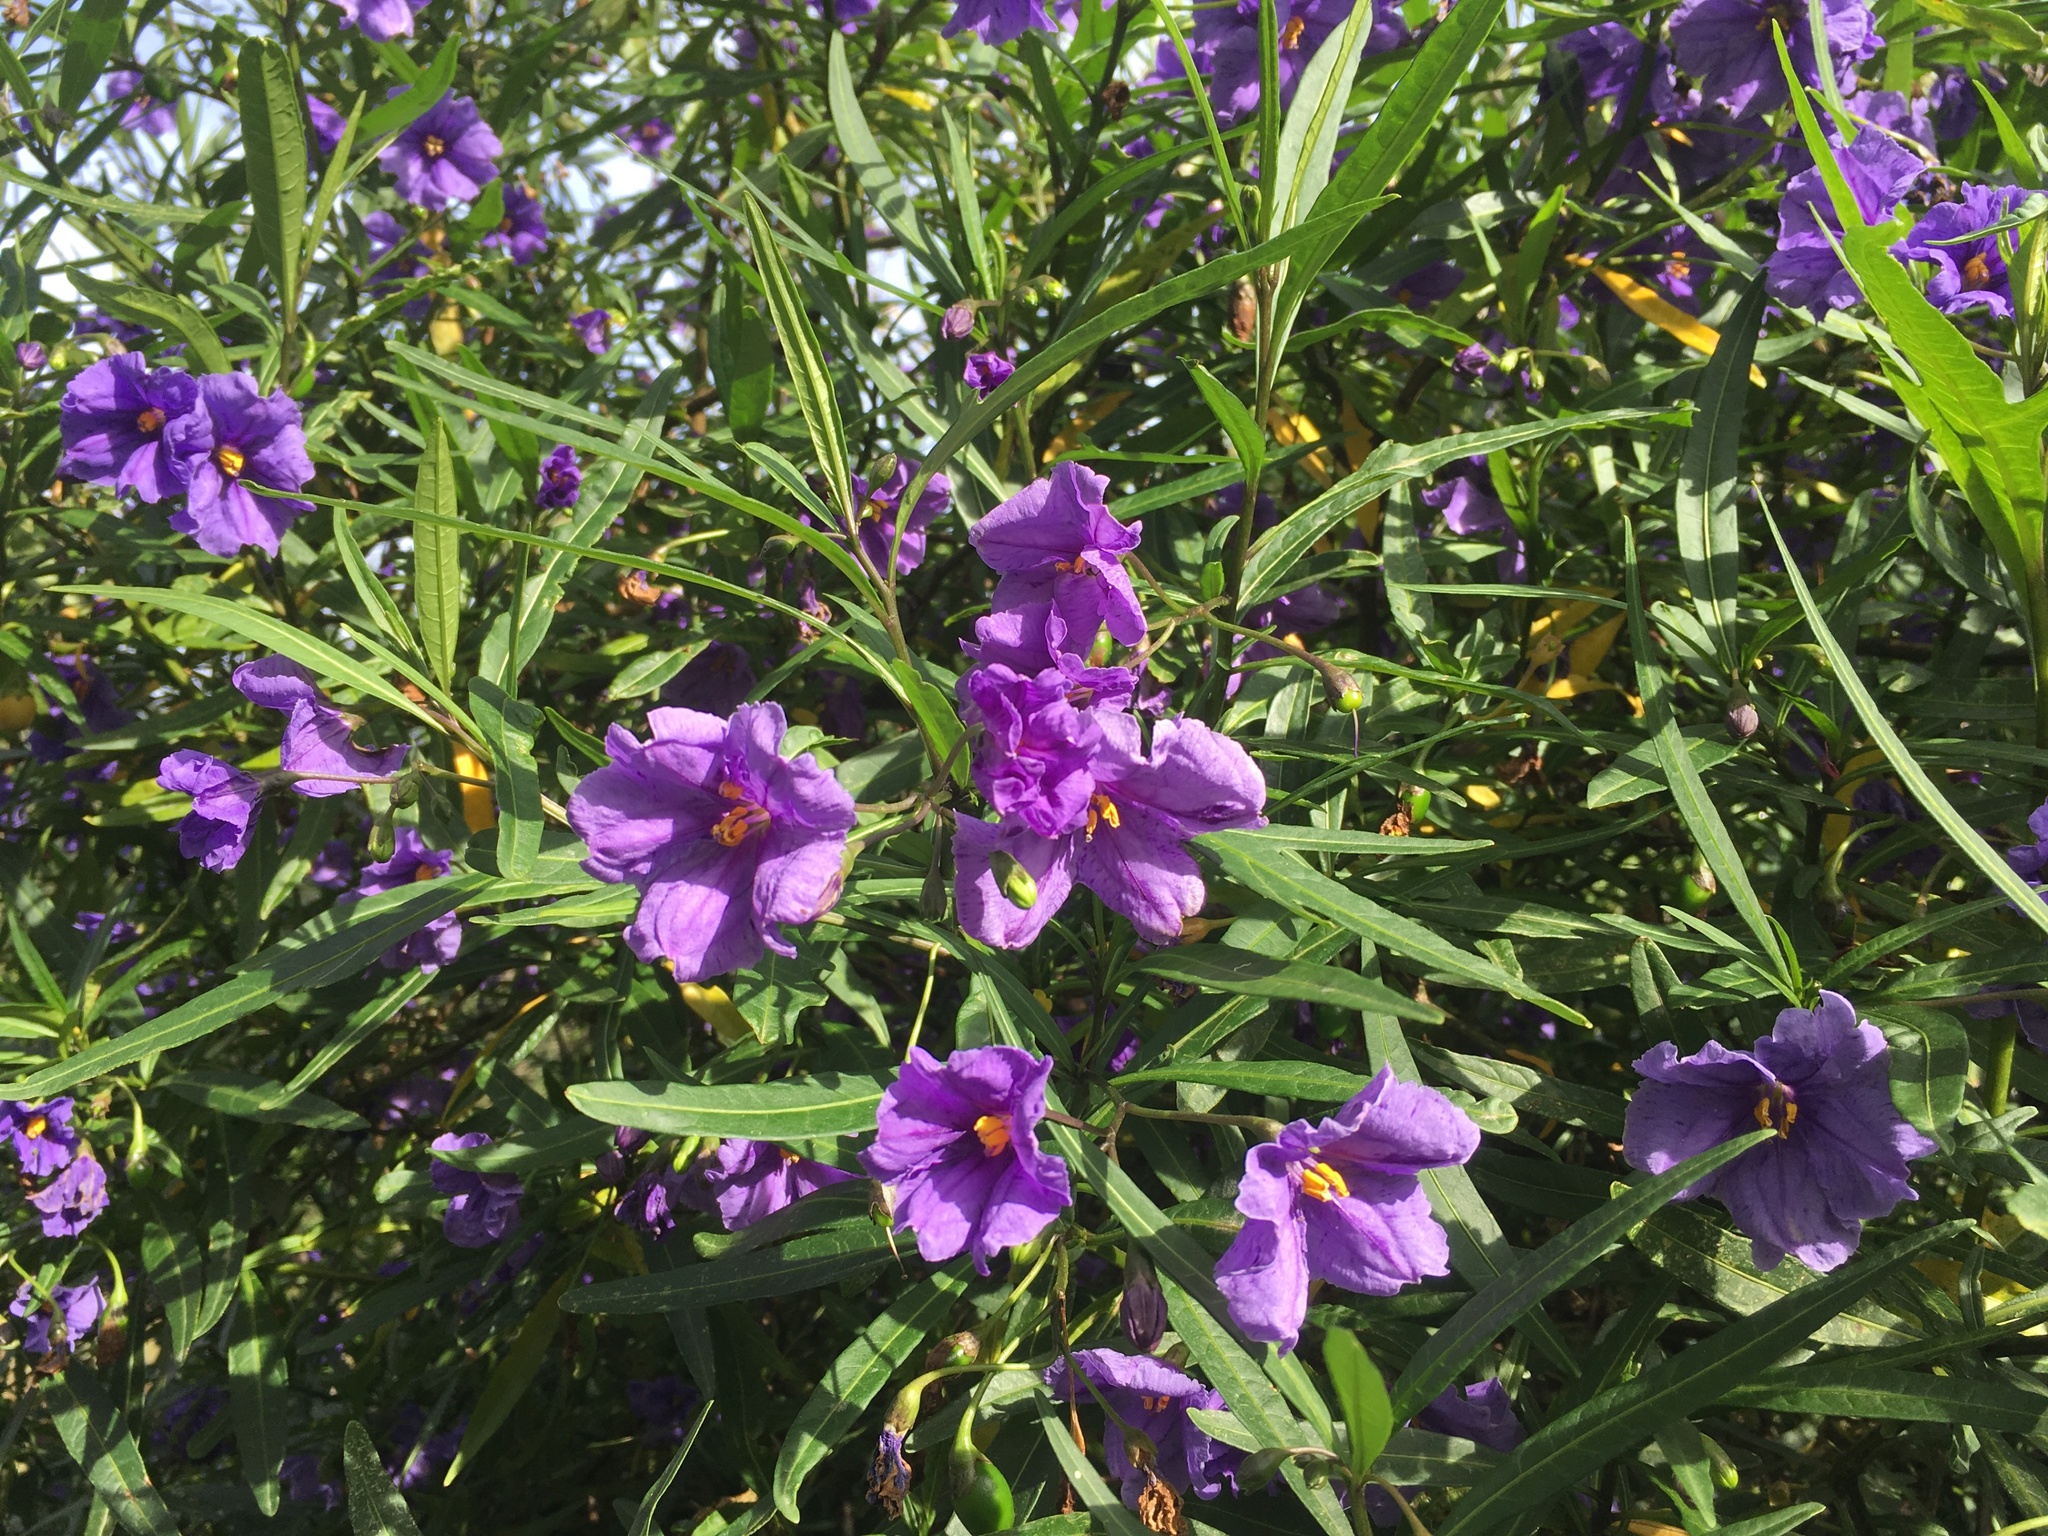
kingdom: Plantae
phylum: Tracheophyta
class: Magnoliopsida
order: Solanales
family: Solanaceae
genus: Solanum
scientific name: Solanum laciniatum
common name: Kangaroo-apple
